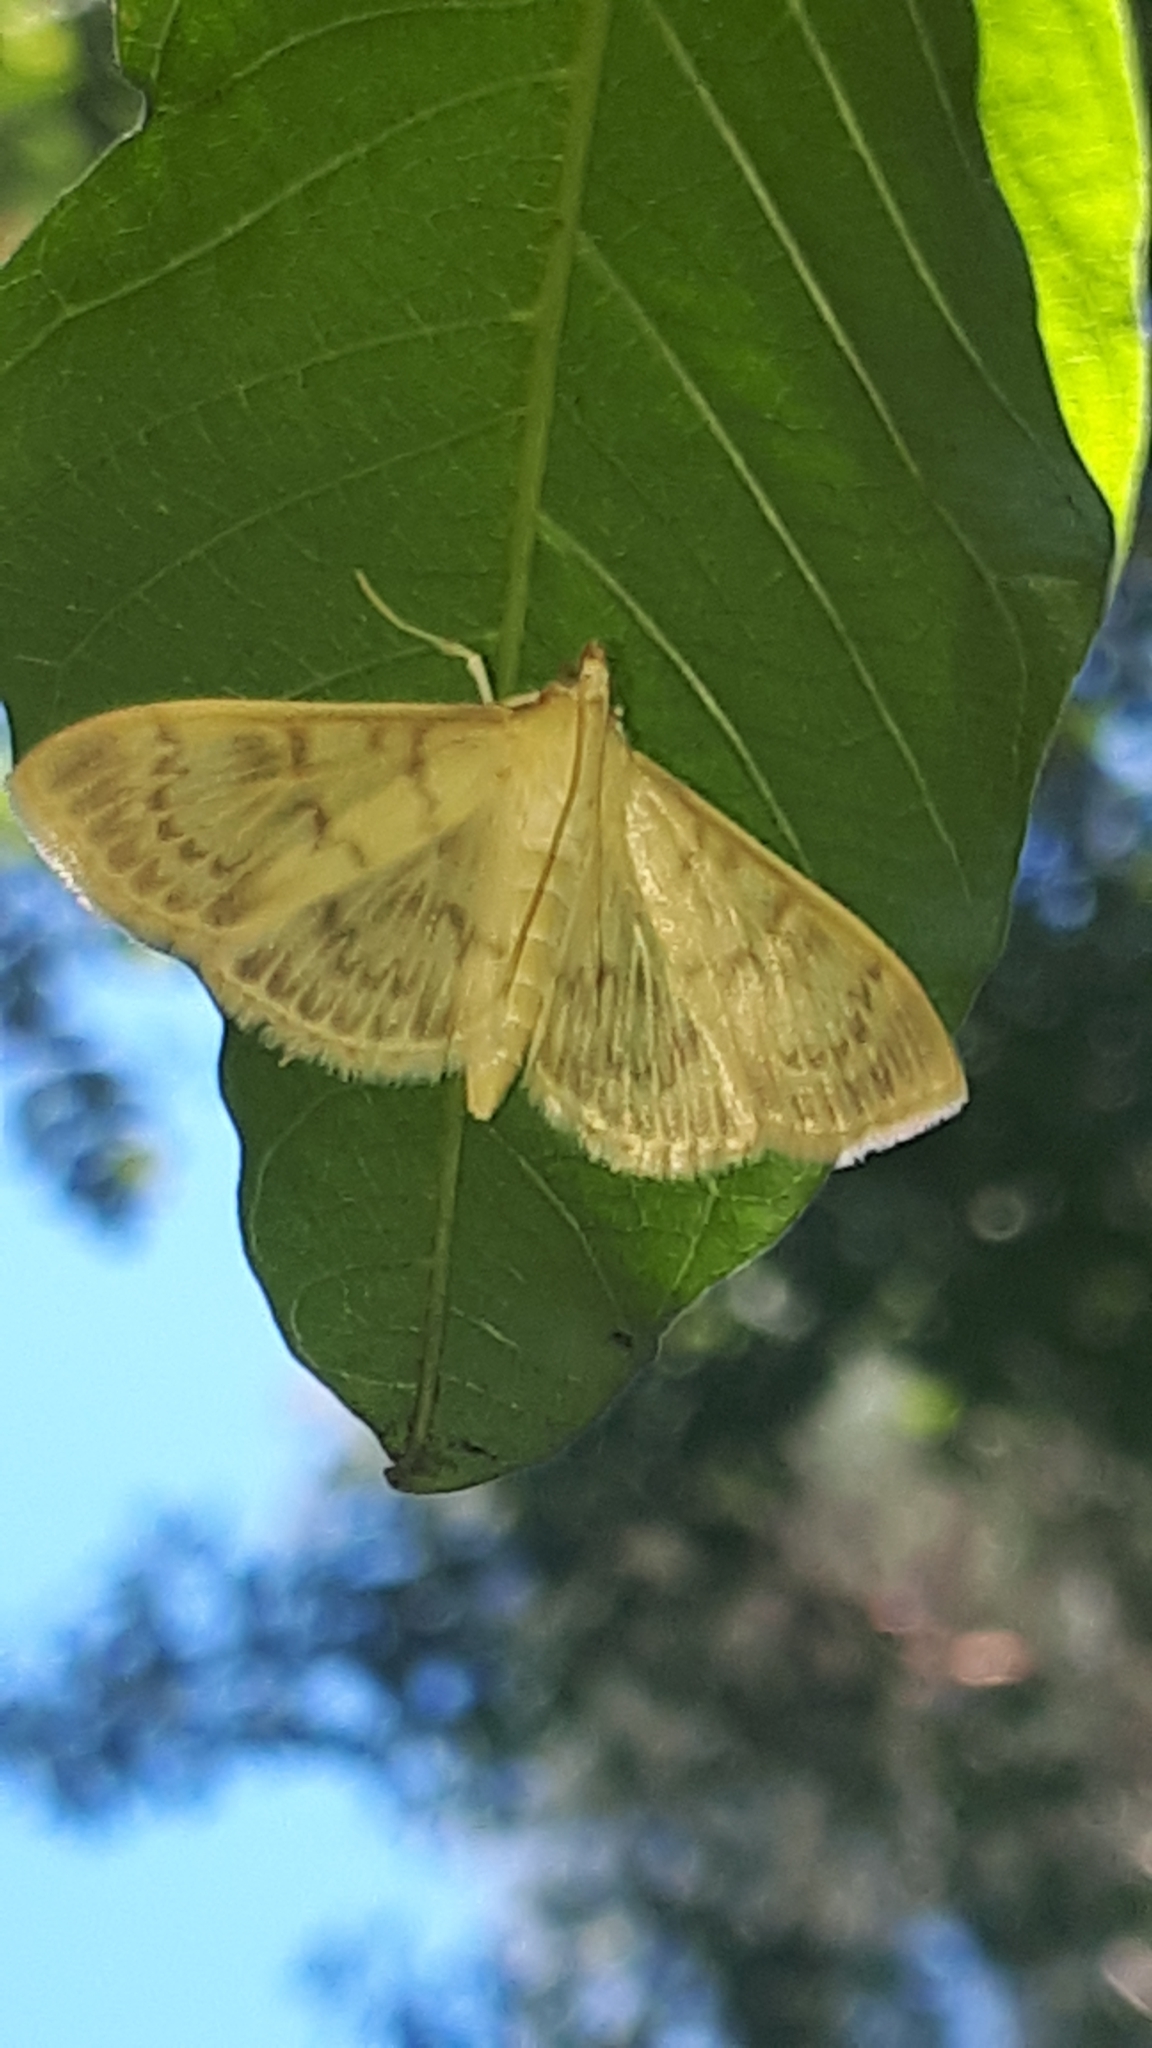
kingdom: Animalia
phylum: Arthropoda
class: Insecta
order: Lepidoptera
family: Crambidae
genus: Patania
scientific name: Patania ruralis
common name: Mother of pearl
